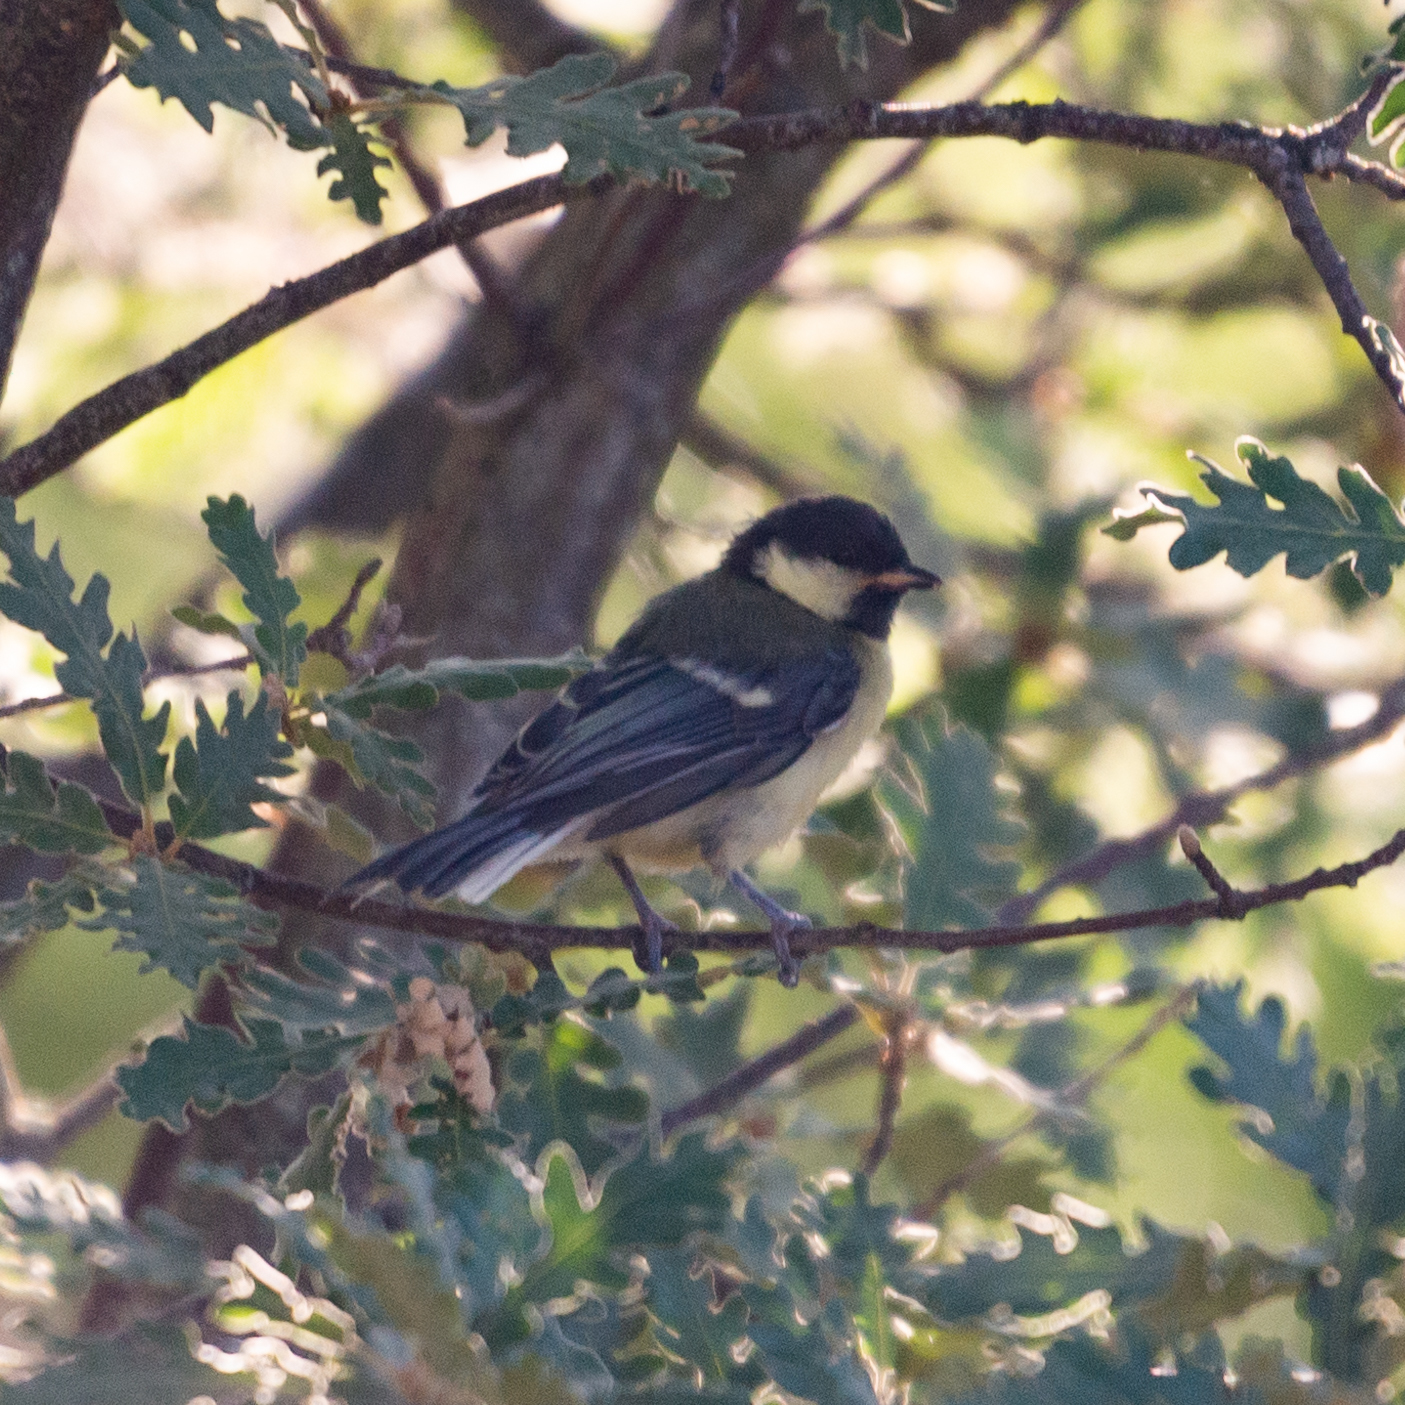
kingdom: Animalia
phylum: Chordata
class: Aves
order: Passeriformes
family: Paridae
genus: Parus
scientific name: Parus major
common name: Great tit
